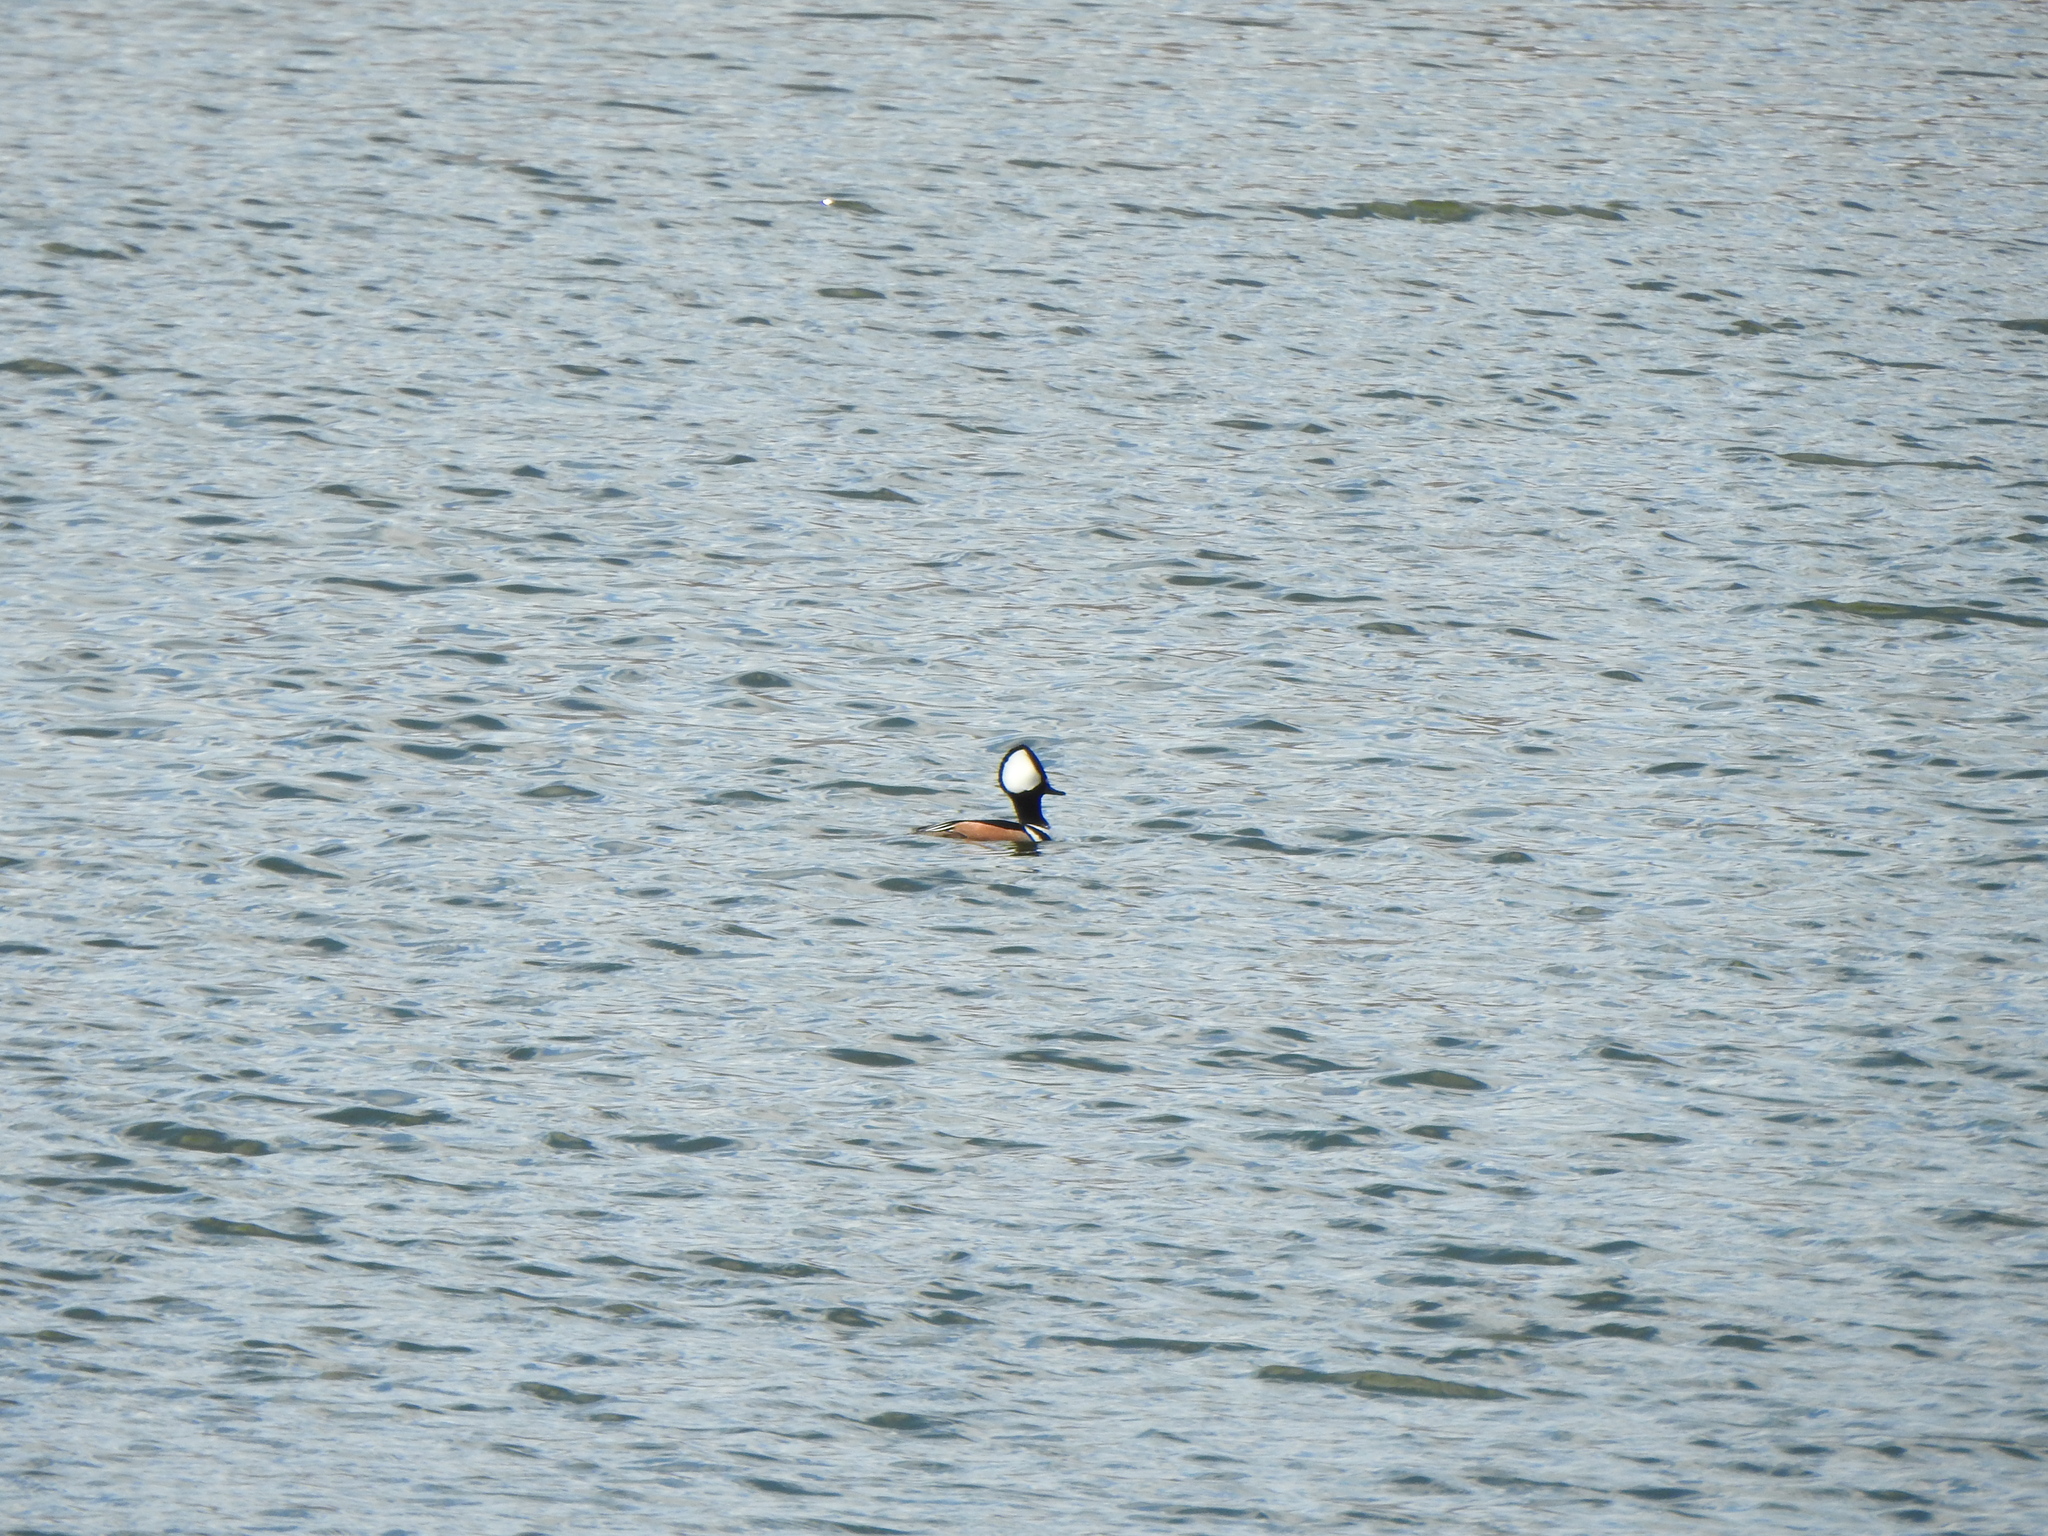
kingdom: Animalia
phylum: Chordata
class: Aves
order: Anseriformes
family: Anatidae
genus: Lophodytes
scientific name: Lophodytes cucullatus
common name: Hooded merganser
